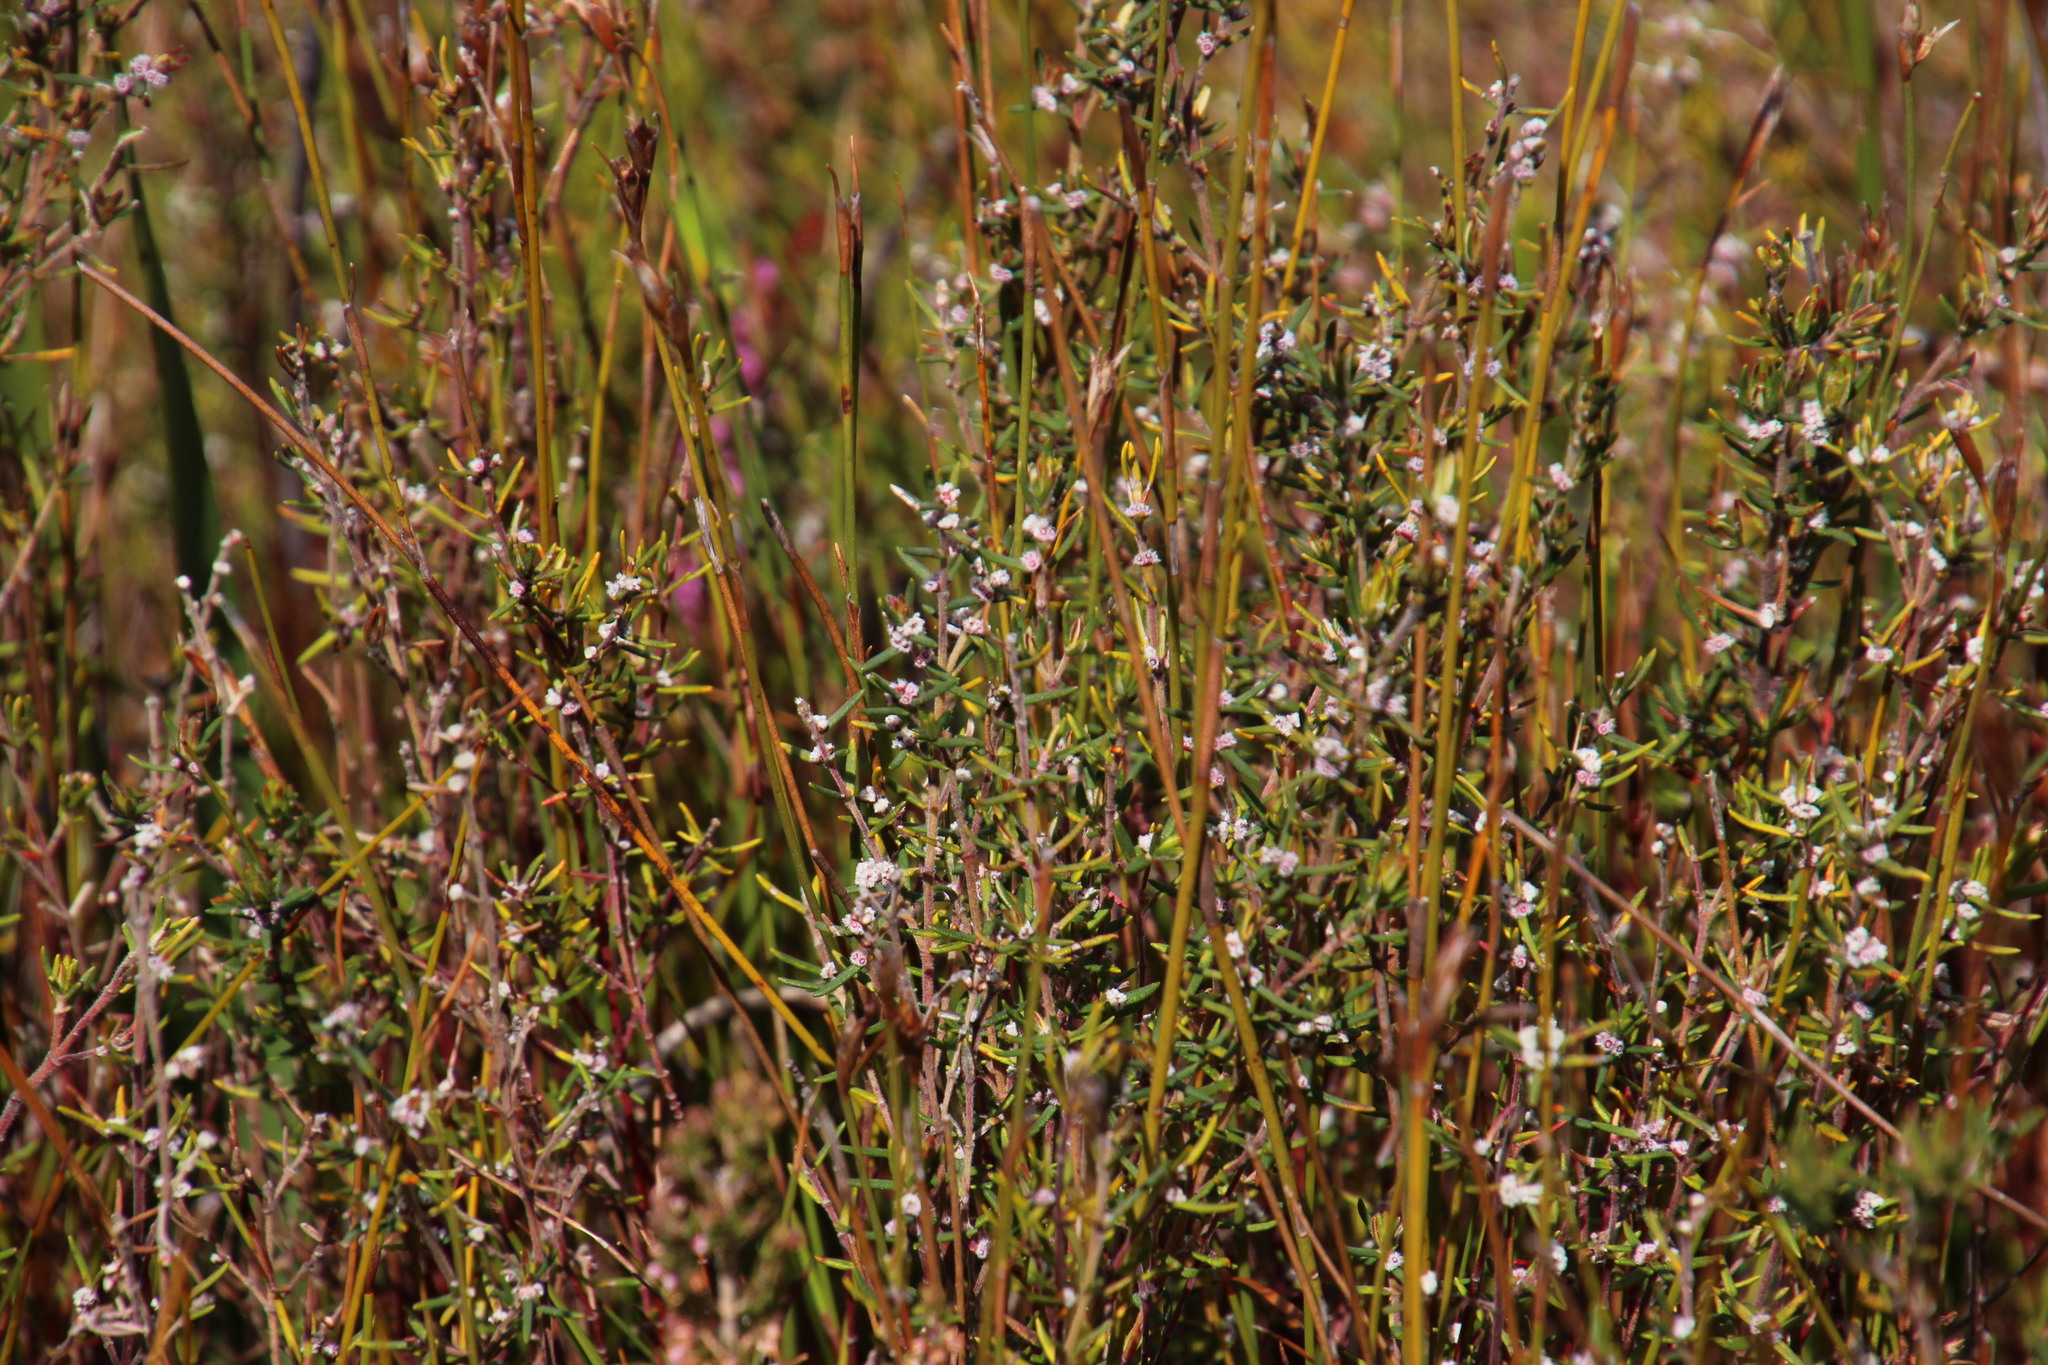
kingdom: Plantae
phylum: Tracheophyta
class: Magnoliopsida
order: Cornales
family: Grubbiaceae
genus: Grubbia
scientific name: Grubbia rosmarinifolia
